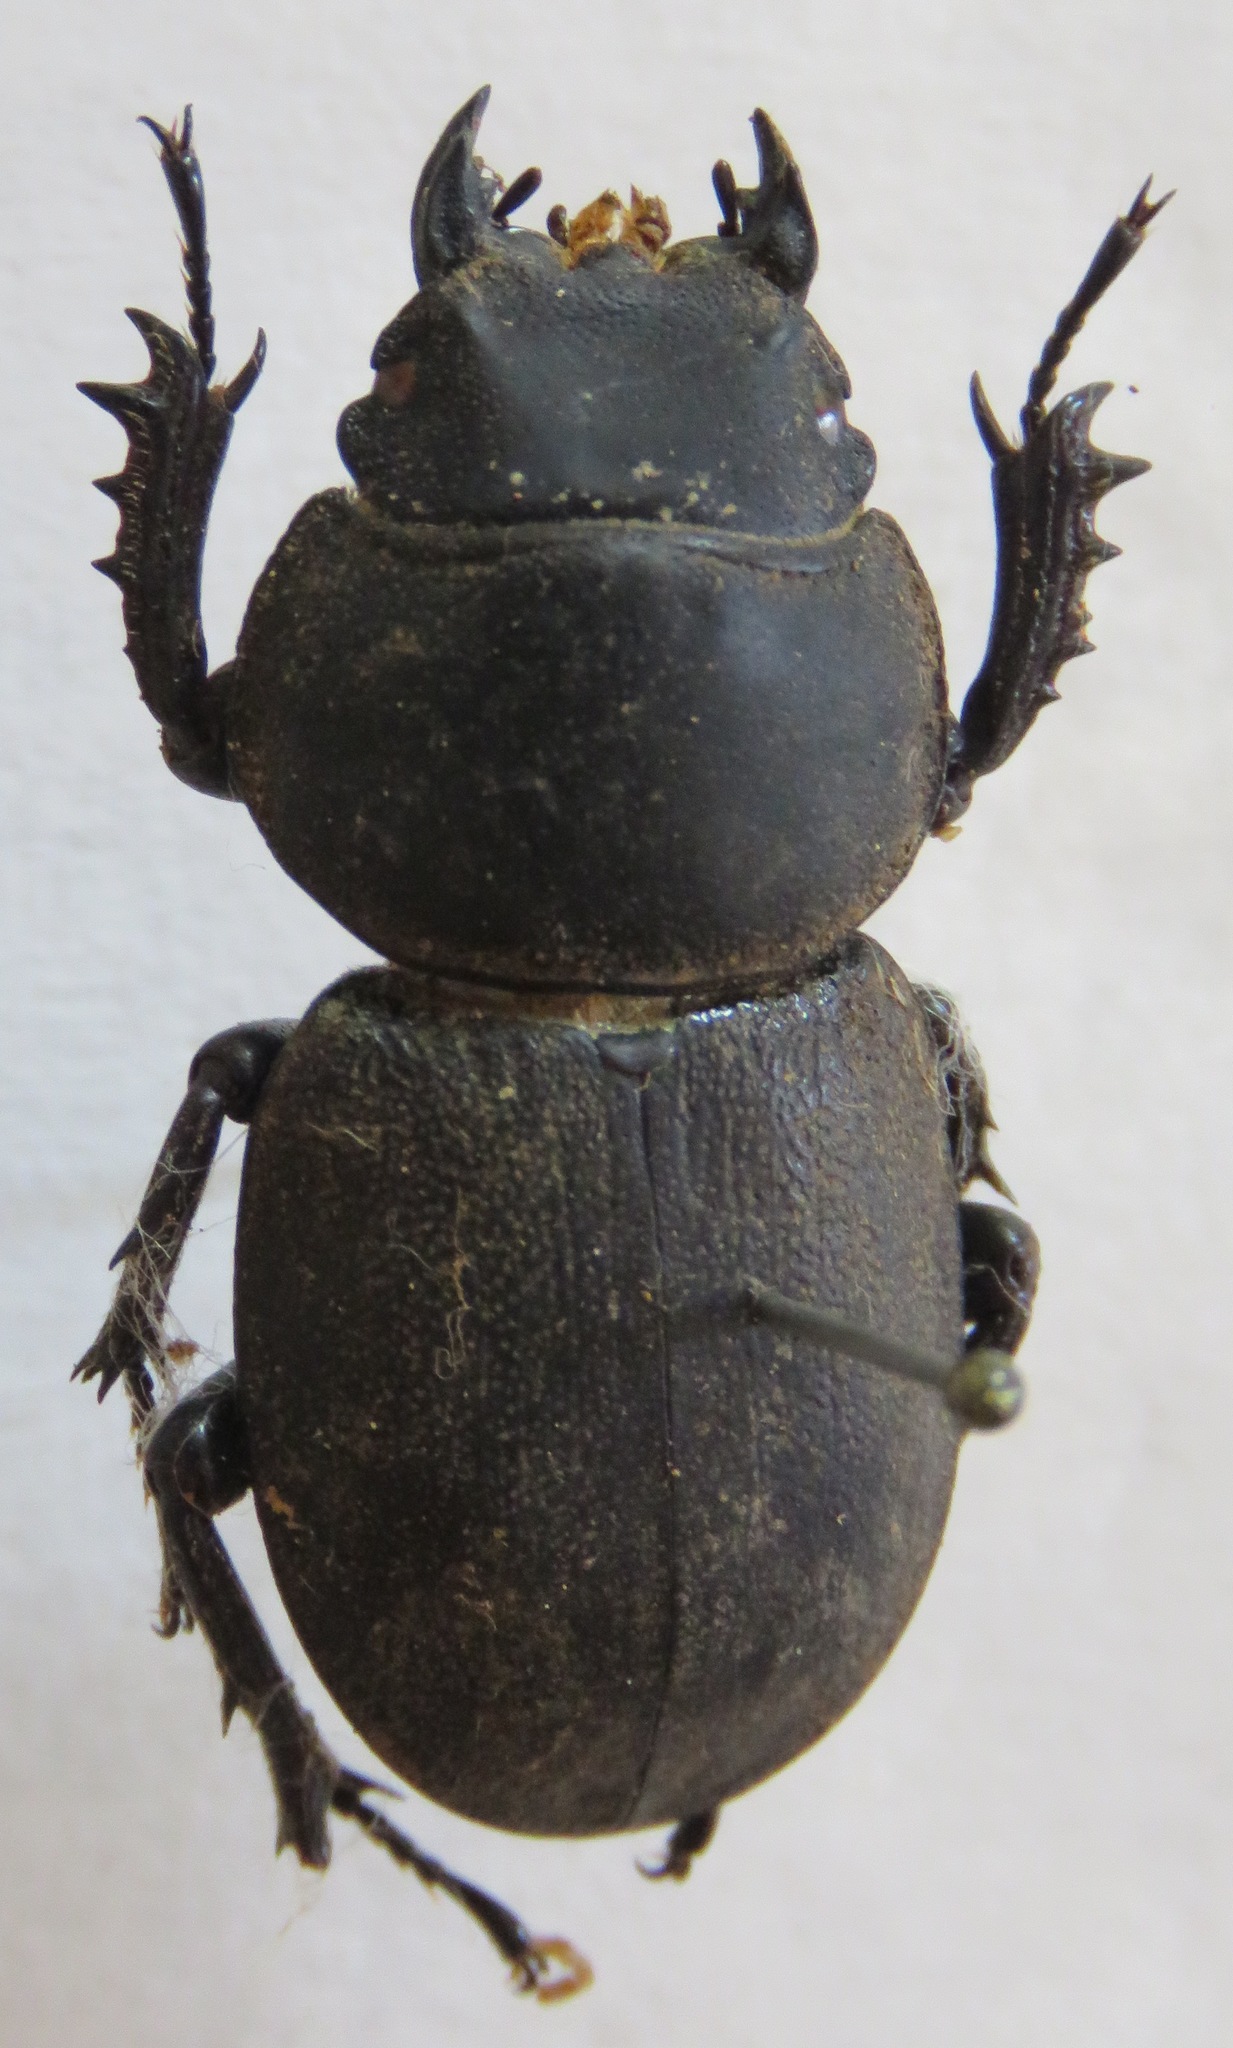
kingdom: Animalia
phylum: Arthropoda
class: Insecta
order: Coleoptera
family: Lucanidae
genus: Apterodorcus
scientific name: Apterodorcus bacchus
